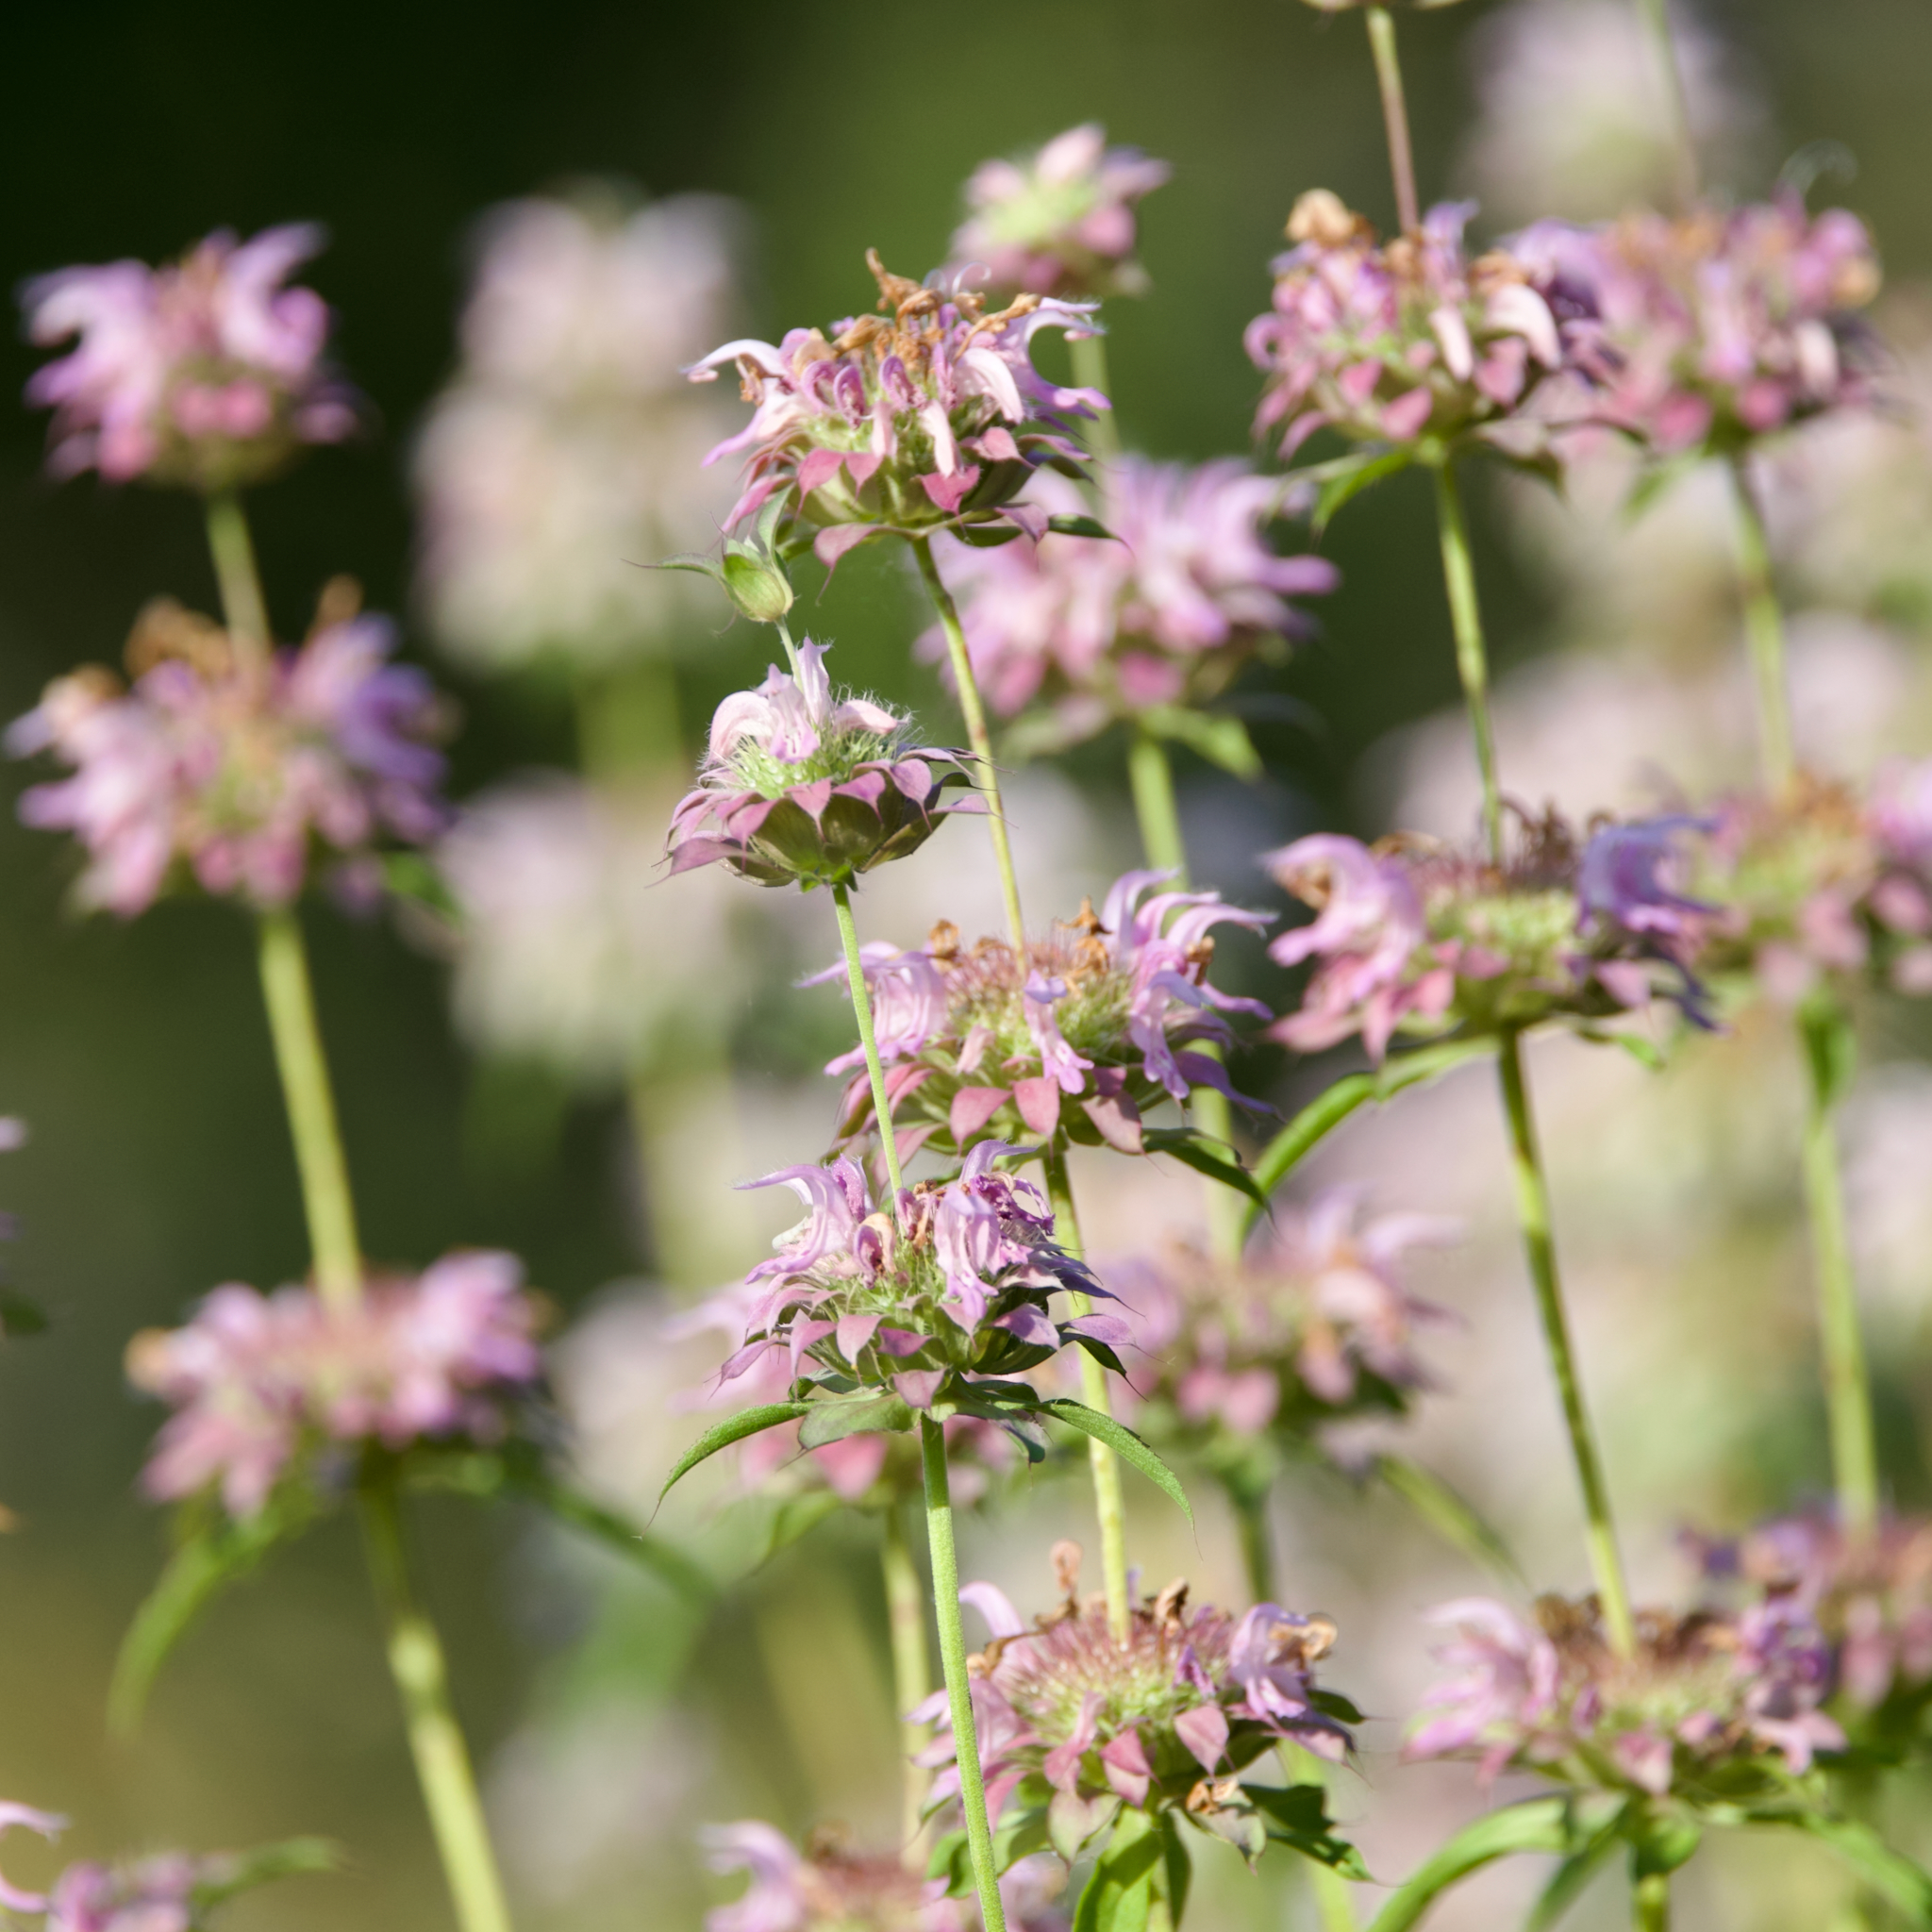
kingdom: Plantae
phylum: Tracheophyta
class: Magnoliopsida
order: Lamiales
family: Lamiaceae
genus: Monarda
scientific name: Monarda citriodora
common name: Lemon beebalm
